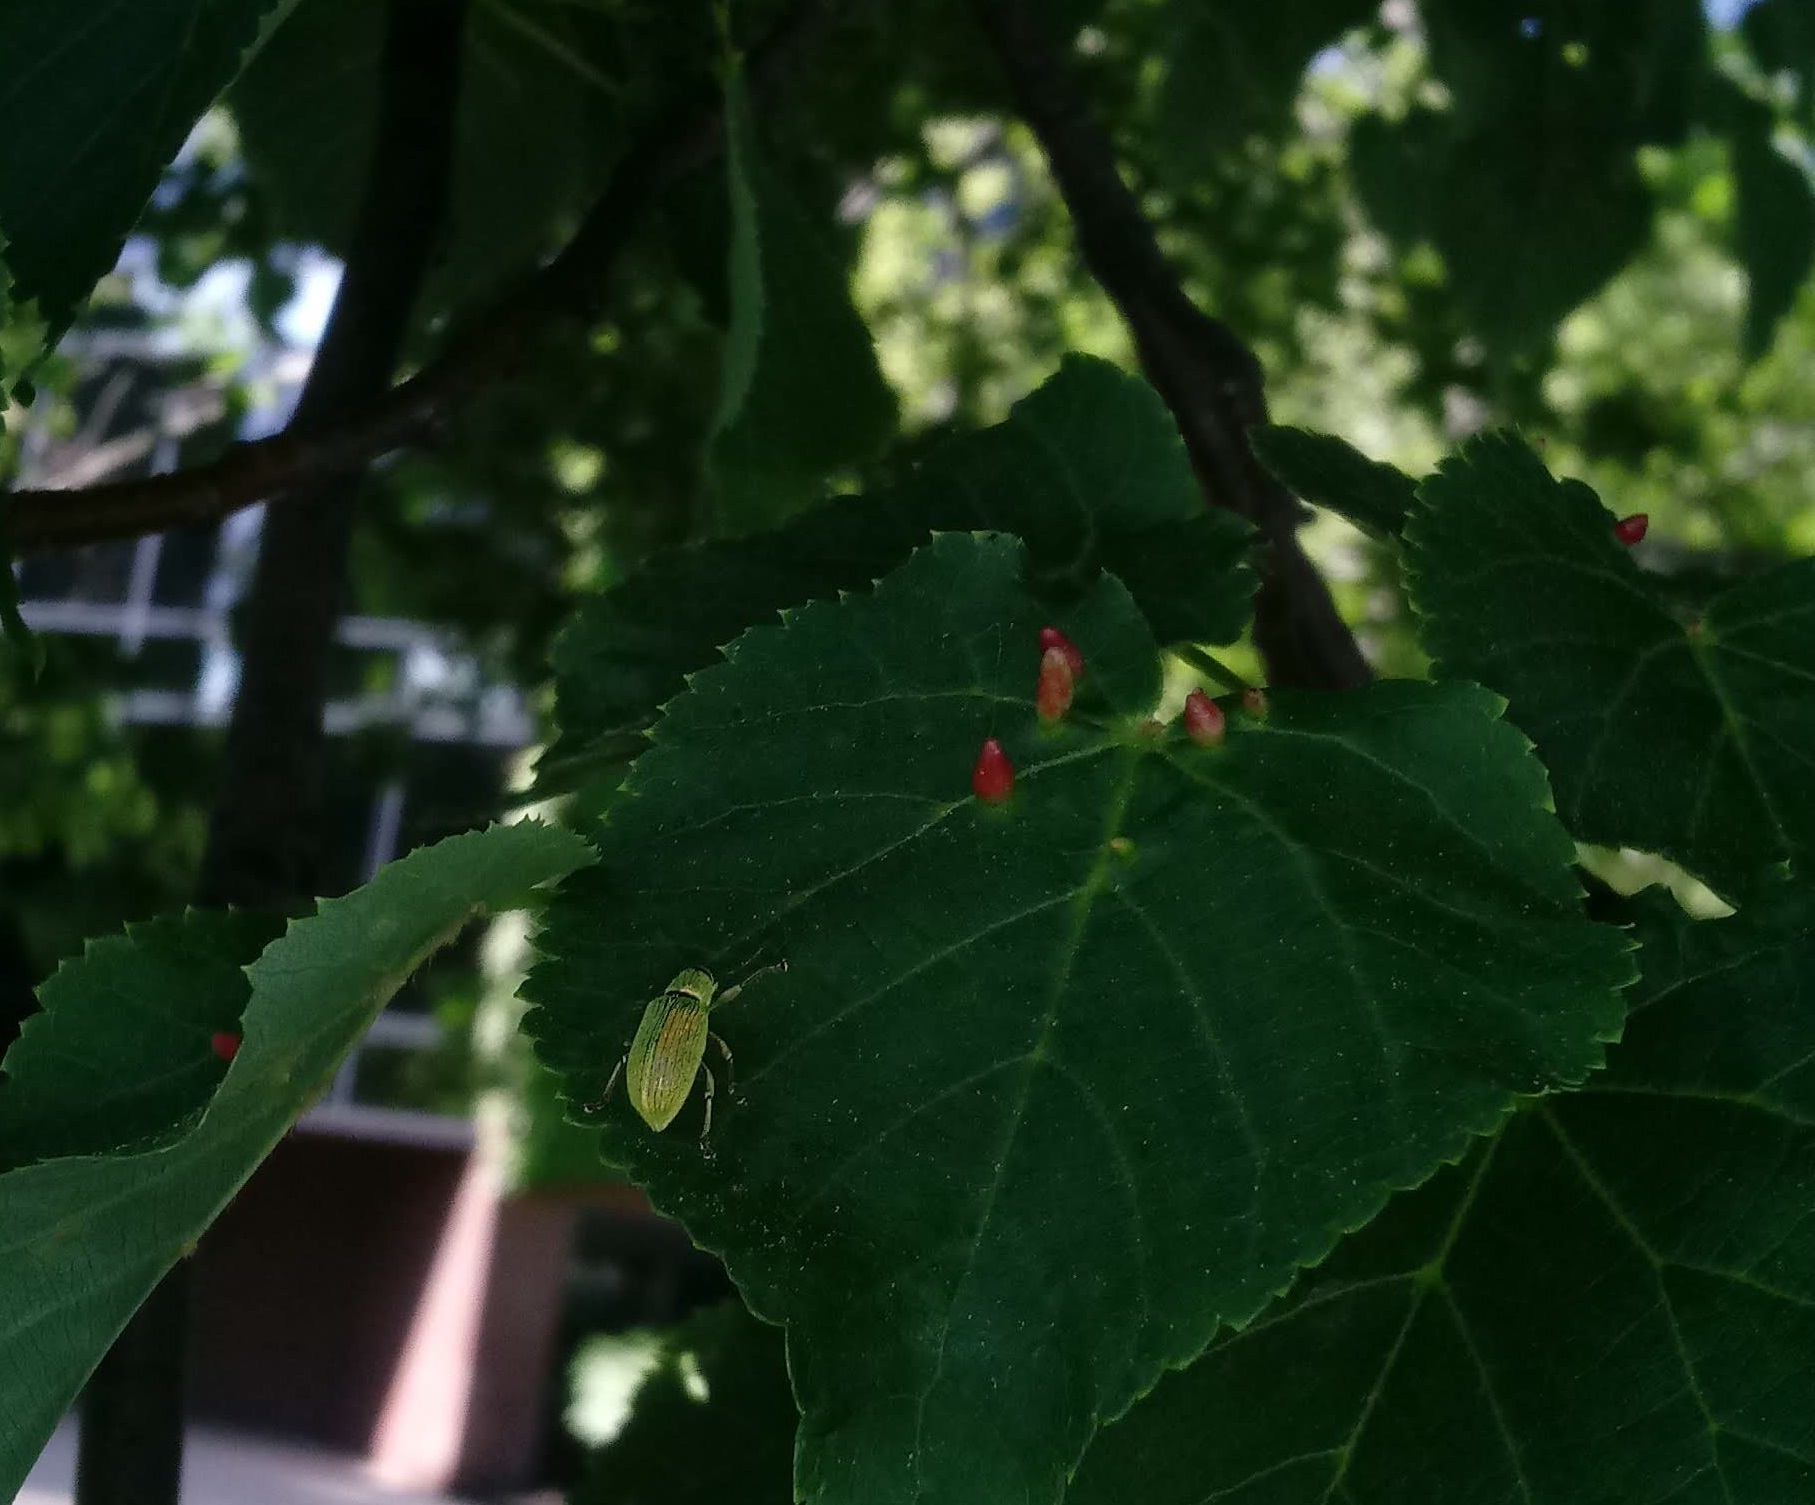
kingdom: Animalia
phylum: Arthropoda
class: Insecta
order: Coleoptera
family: Curculionidae
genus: Polydrusus
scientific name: Polydrusus formosus
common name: Weevil
